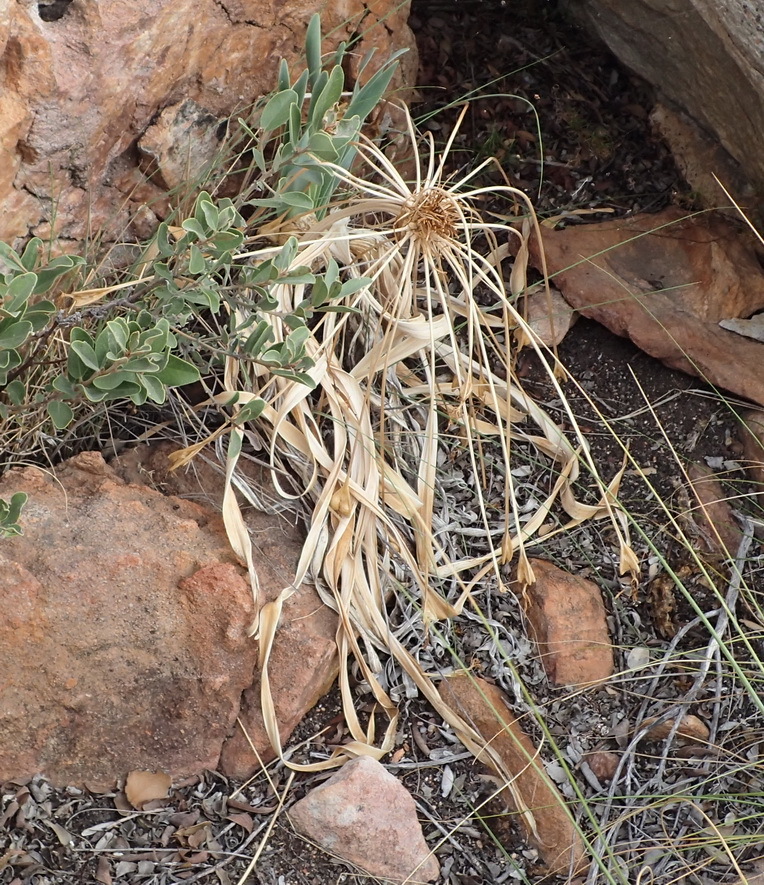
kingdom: Plantae
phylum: Tracheophyta
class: Liliopsida
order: Asparagales
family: Amaryllidaceae
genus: Boophone
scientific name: Boophone disticha
